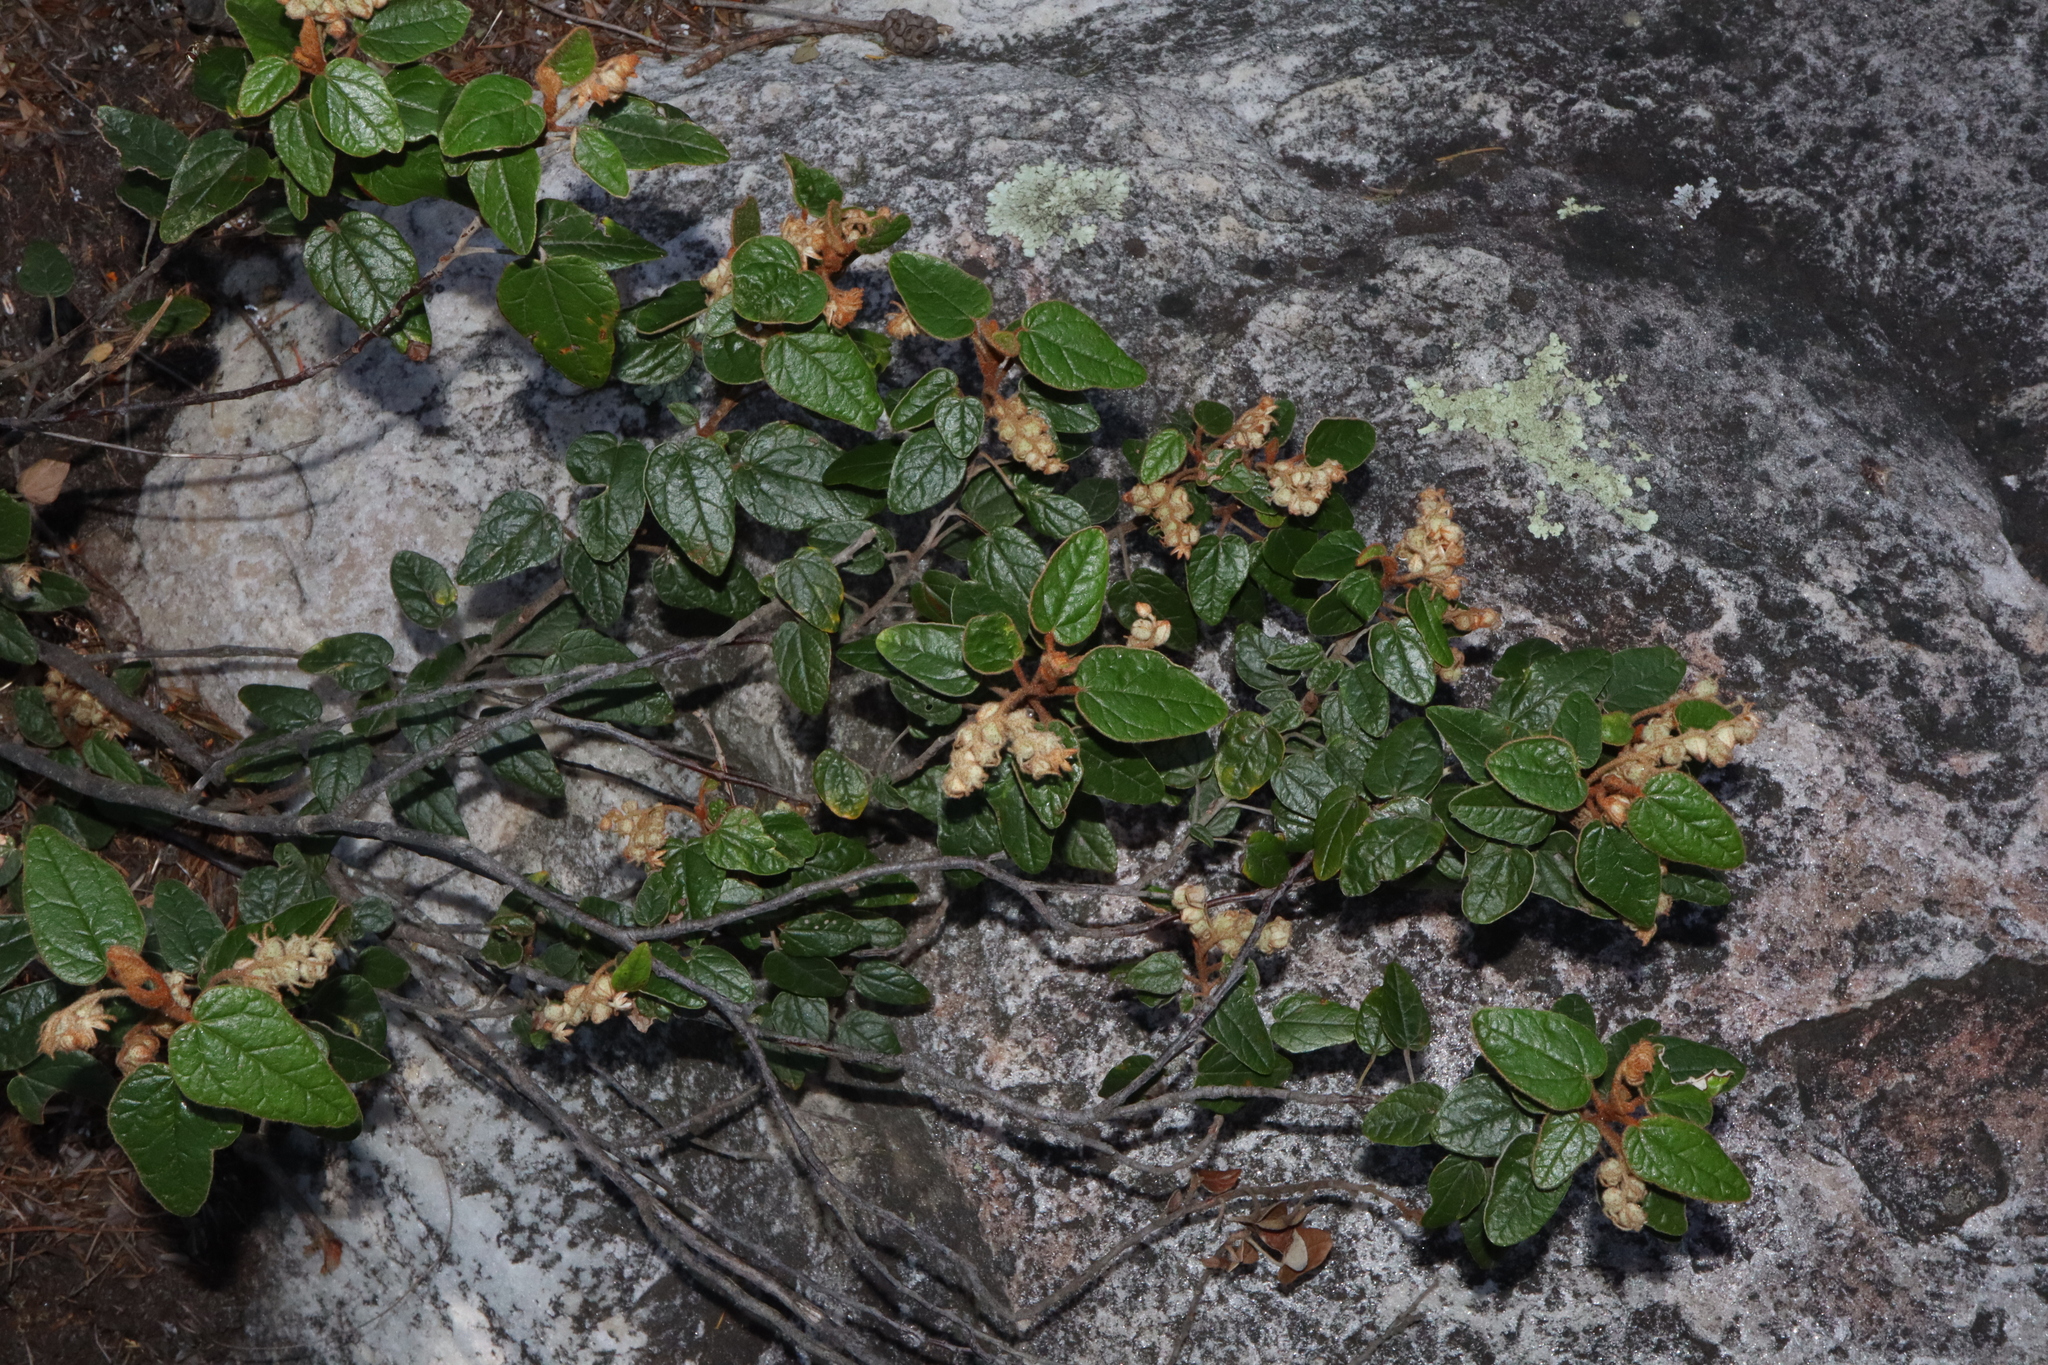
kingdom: Plantae
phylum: Tracheophyta
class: Magnoliopsida
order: Malvales
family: Malvaceae
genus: Lasiopetalum
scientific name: Lasiopetalum quinquenervium
